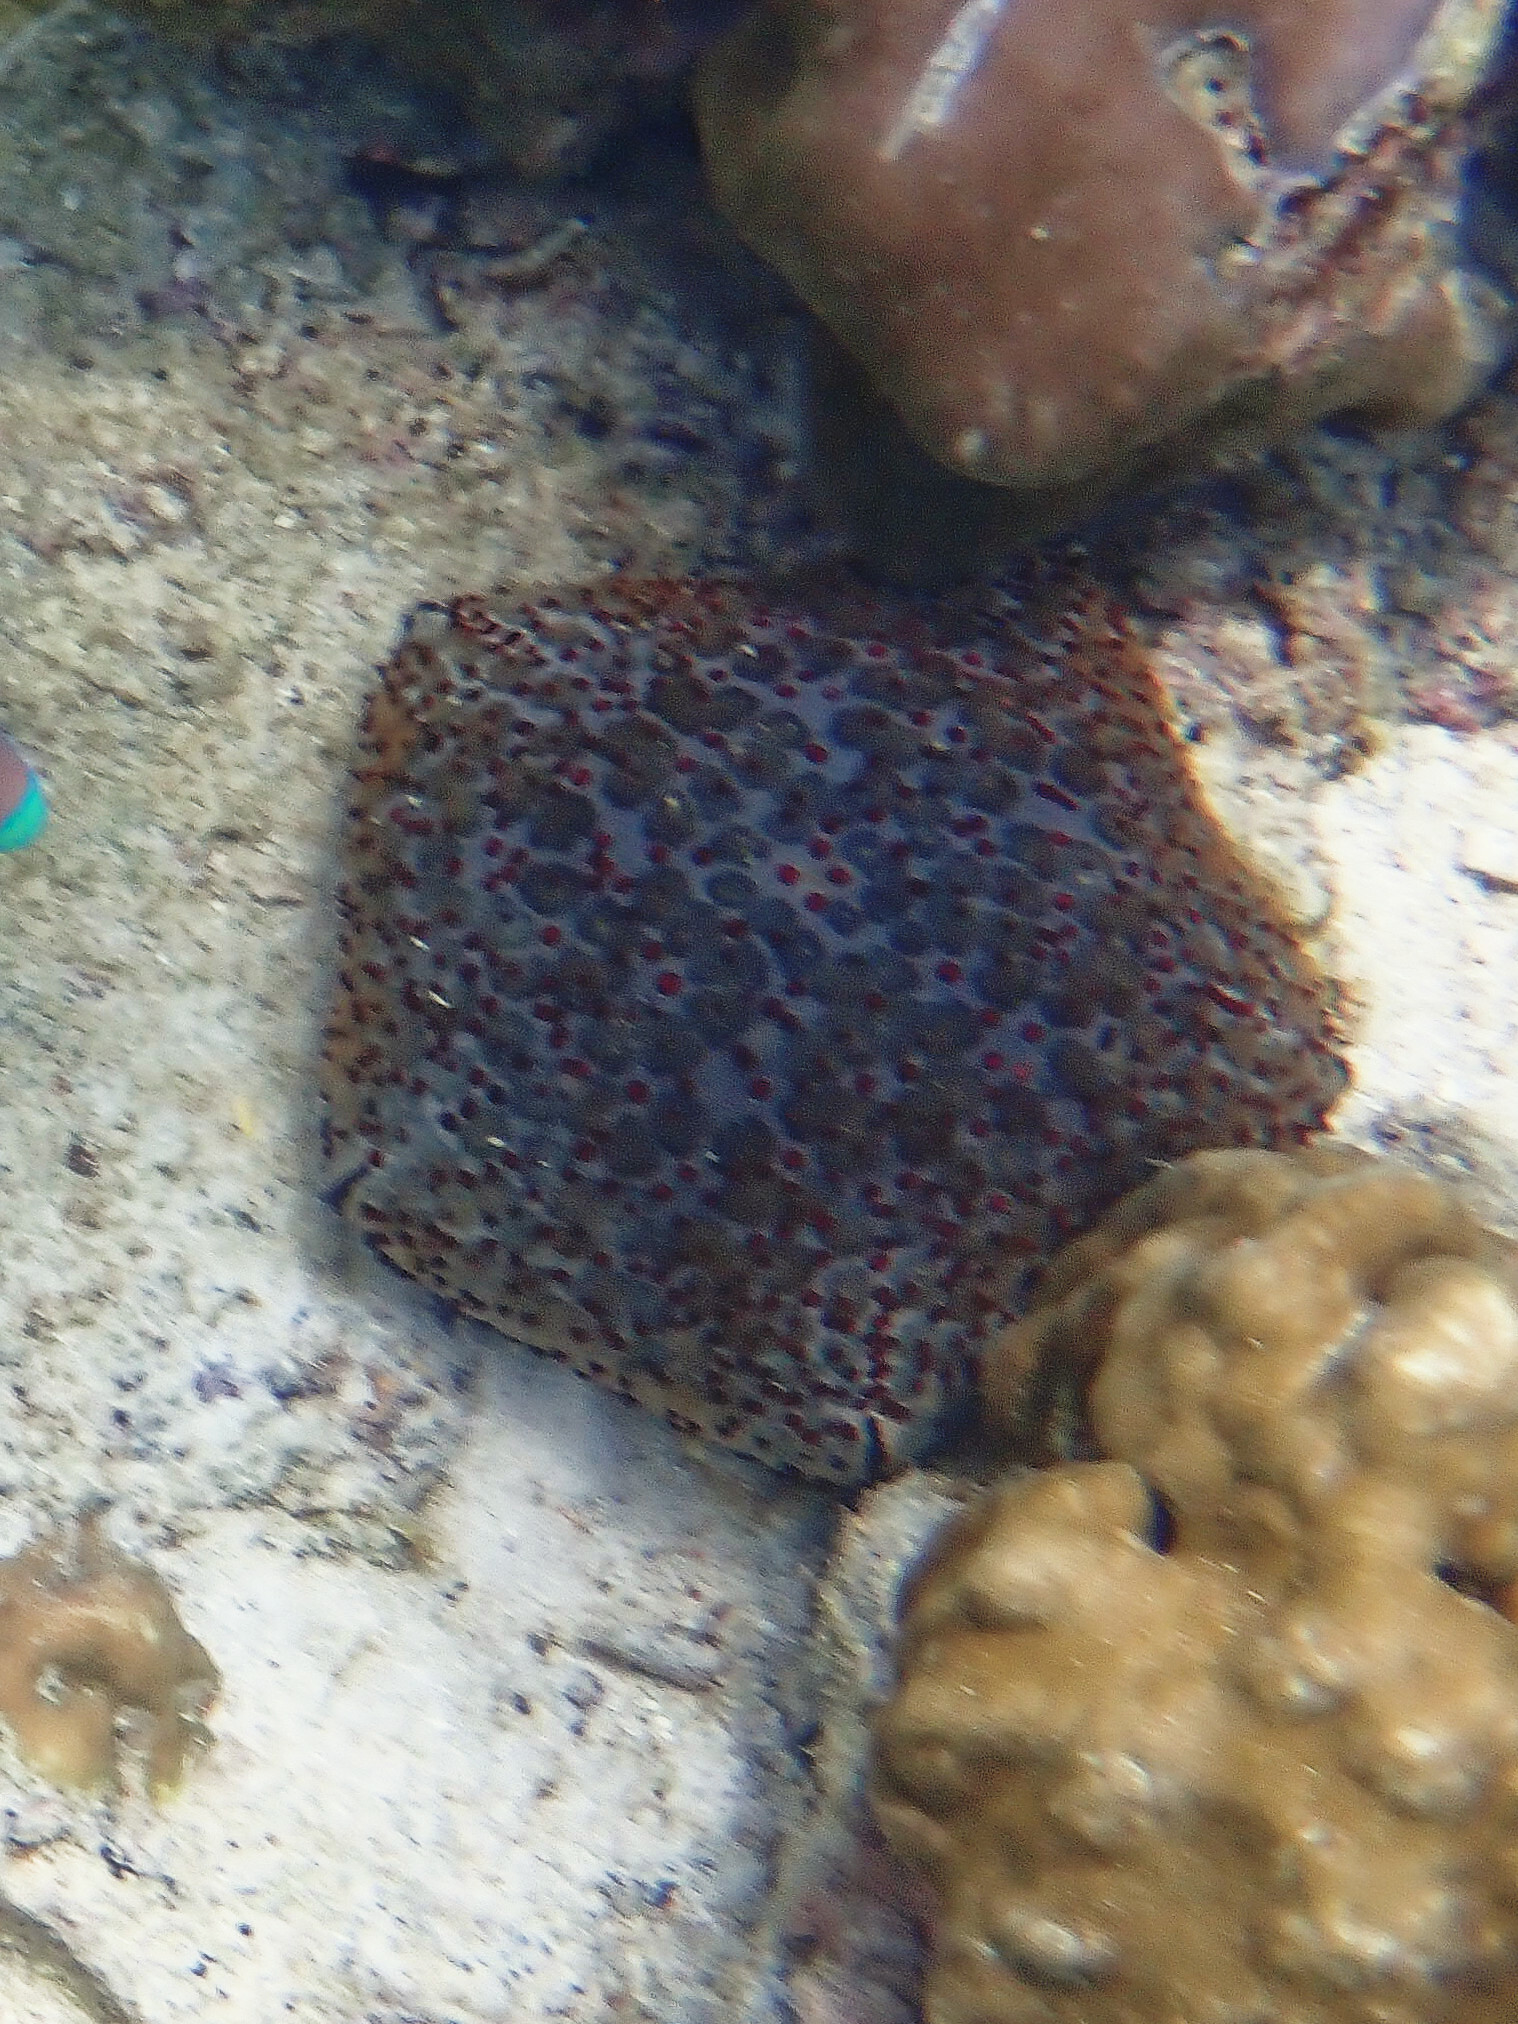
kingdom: Animalia
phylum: Echinodermata
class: Asteroidea
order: Valvatida
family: Oreasteridae
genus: Culcita
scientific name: Culcita schmideliana
